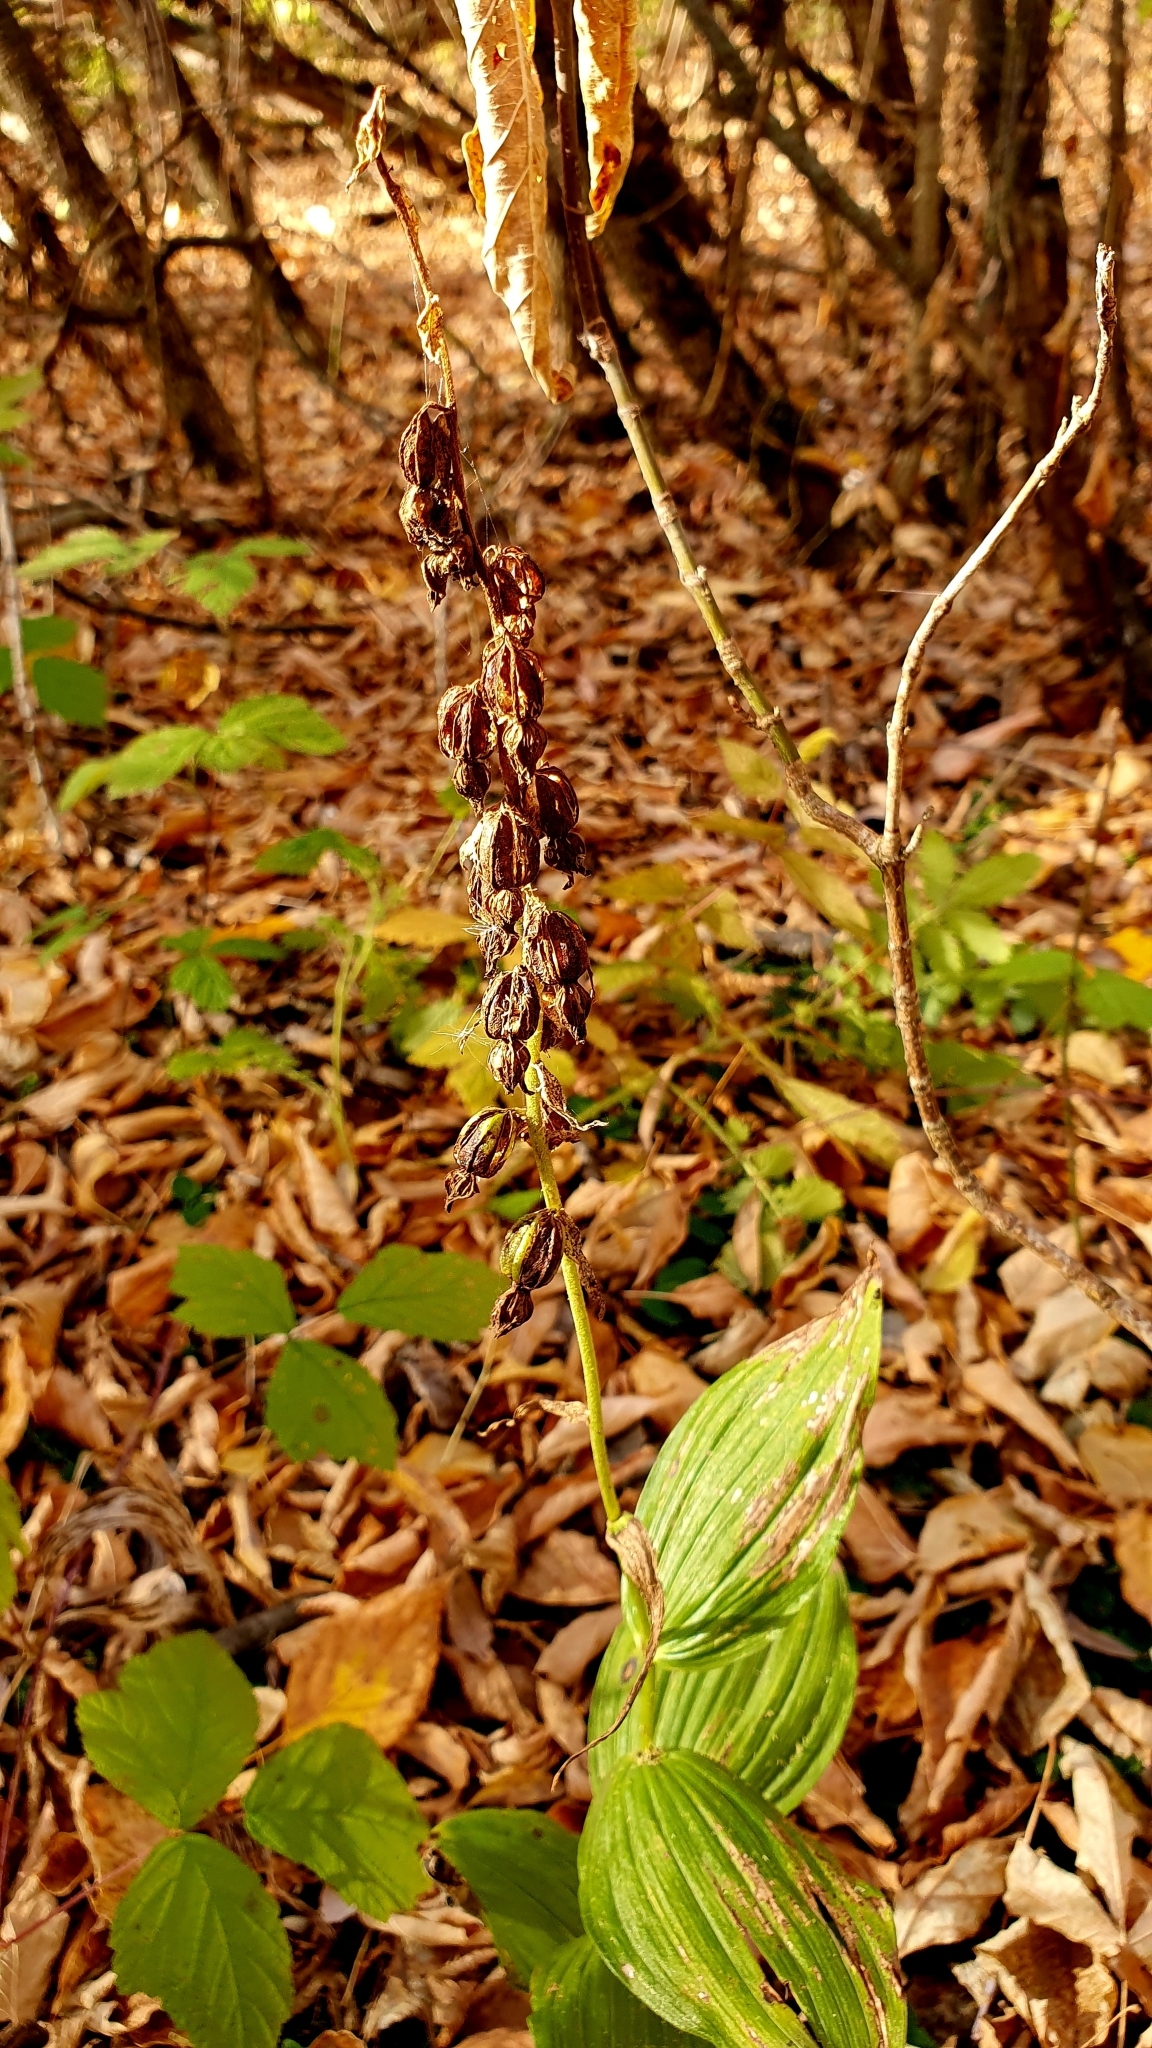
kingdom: Plantae
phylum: Tracheophyta
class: Liliopsida
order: Asparagales
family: Orchidaceae
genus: Epipactis
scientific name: Epipactis helleborine
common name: Broad-leaved helleborine
